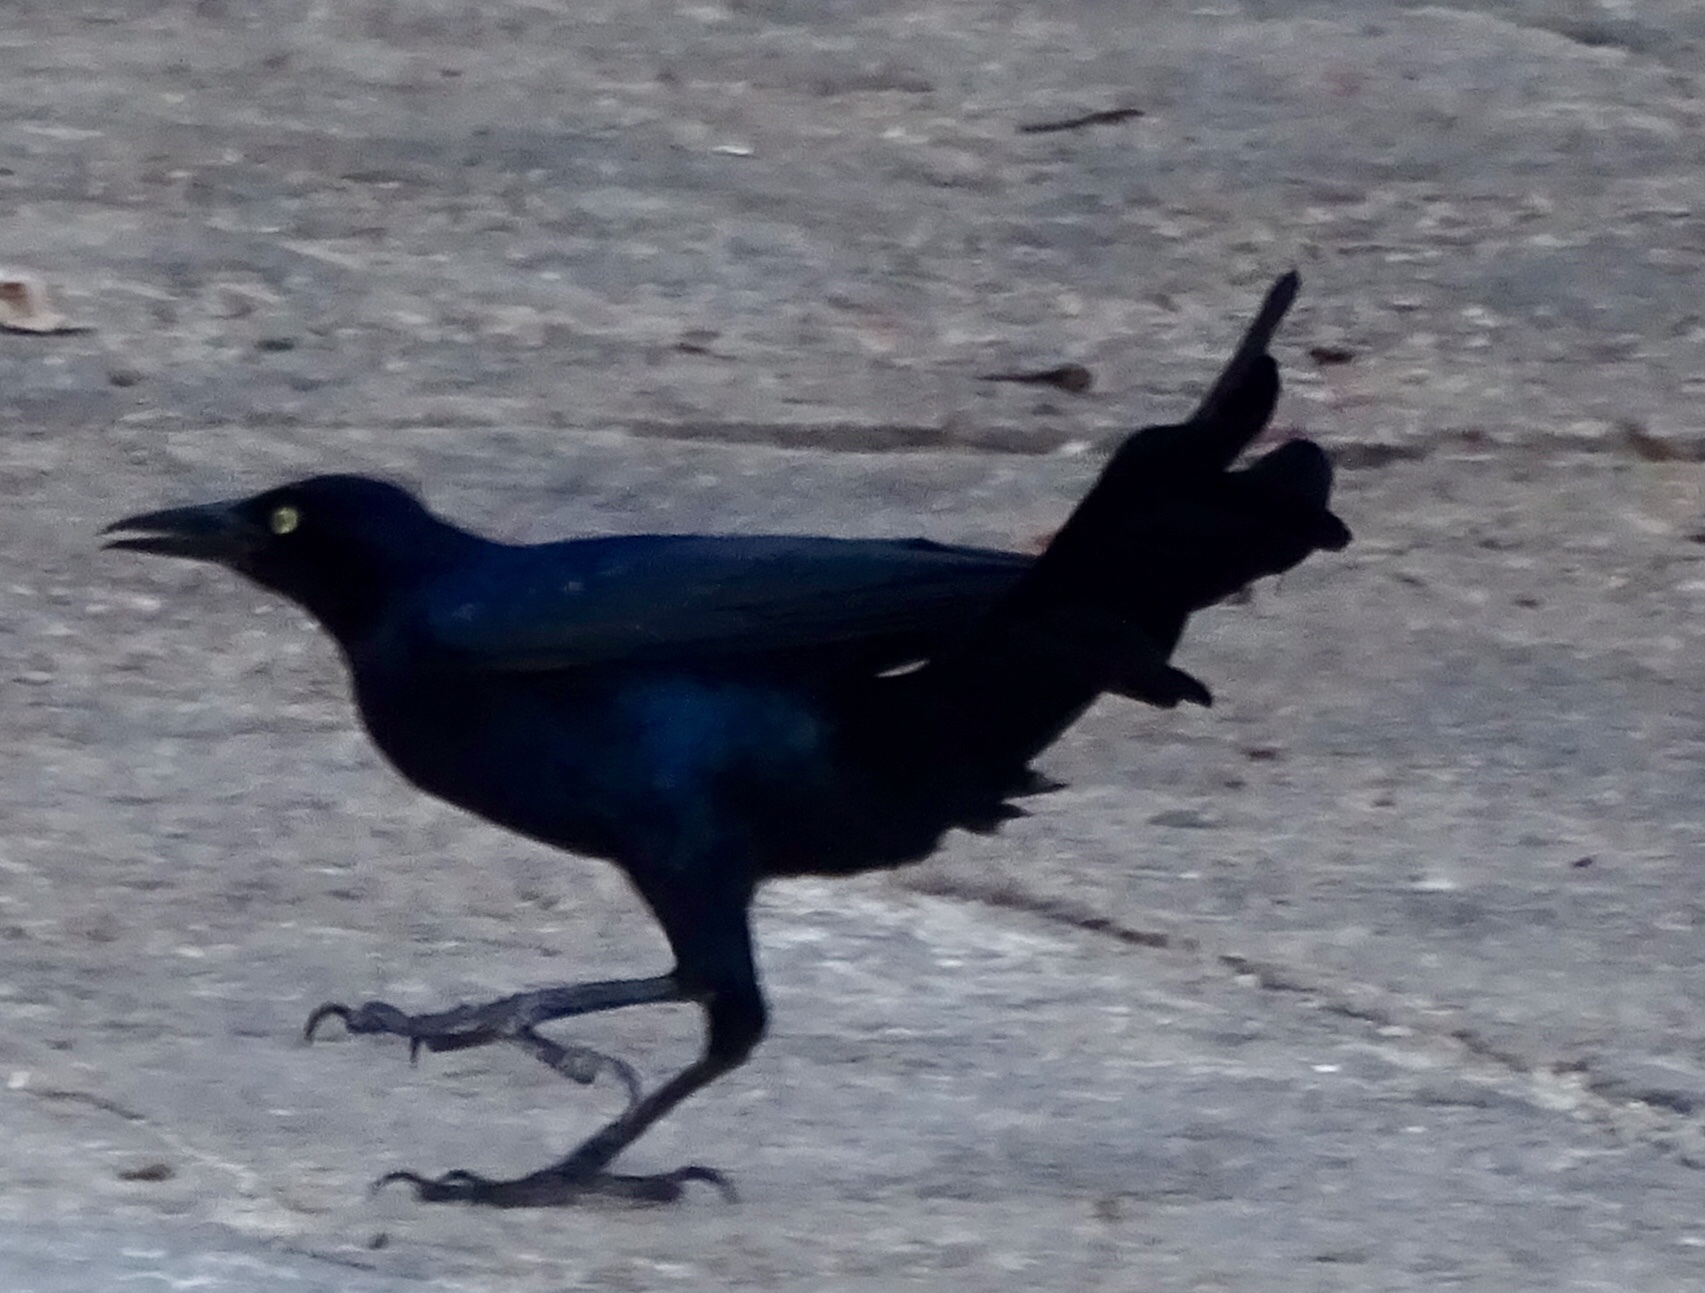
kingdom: Animalia
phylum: Chordata
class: Aves
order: Passeriformes
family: Icteridae
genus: Quiscalus
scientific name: Quiscalus mexicanus
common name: Great-tailed grackle
